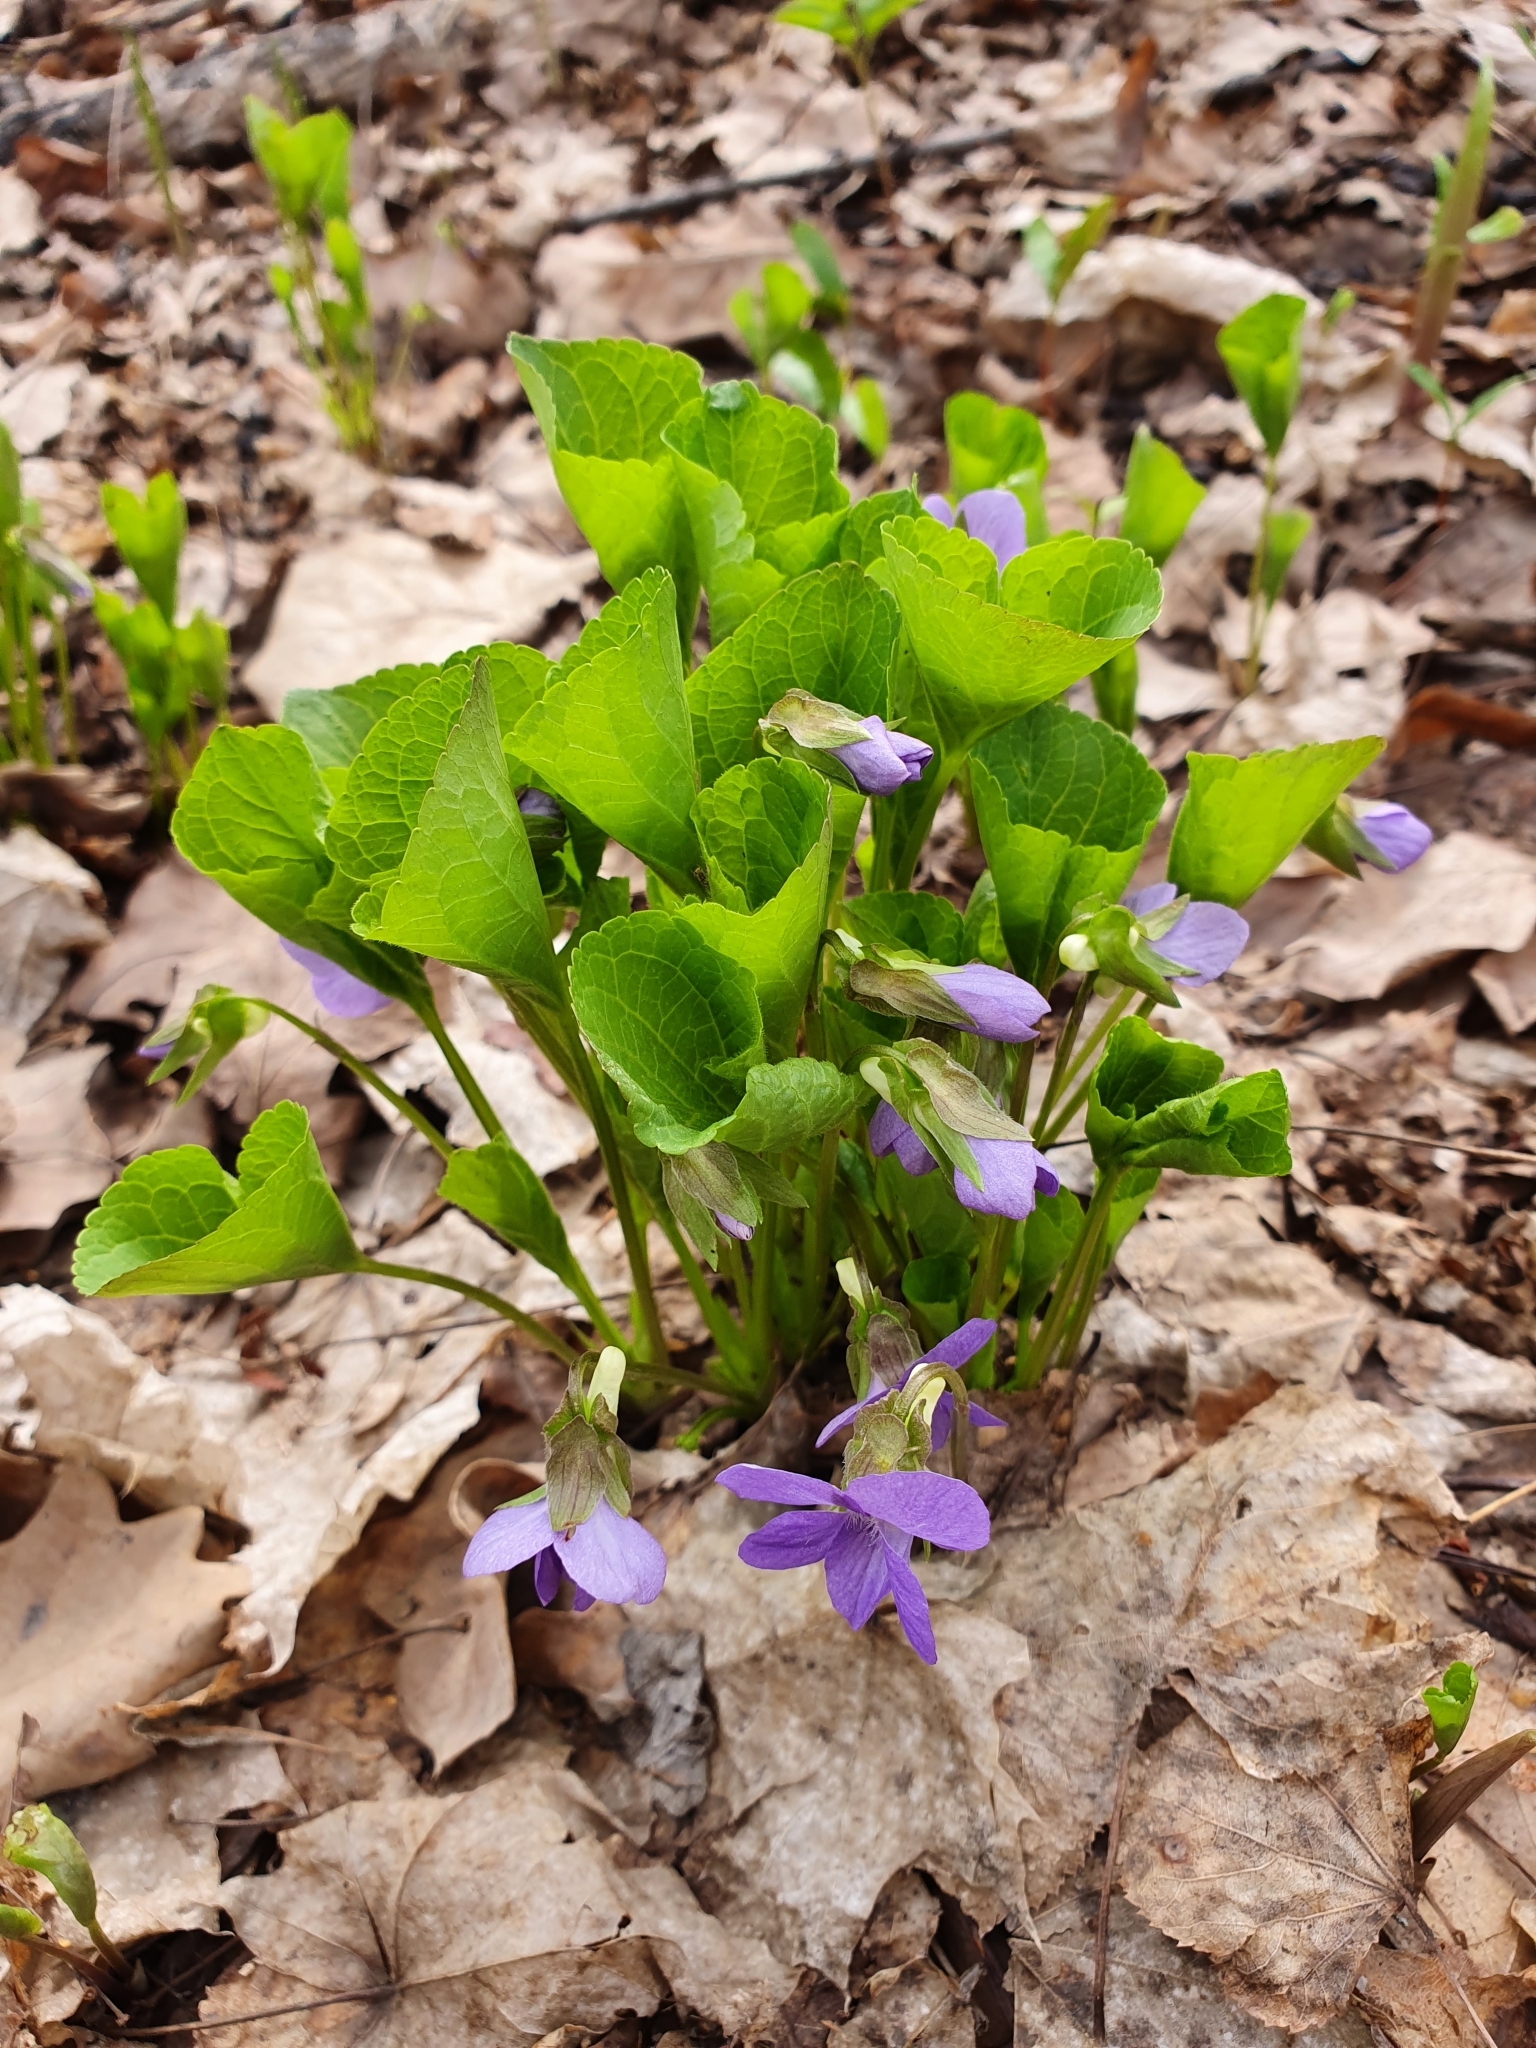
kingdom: Plantae
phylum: Tracheophyta
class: Magnoliopsida
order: Malpighiales
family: Violaceae
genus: Viola
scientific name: Viola mirabilis
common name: Wonder violet
